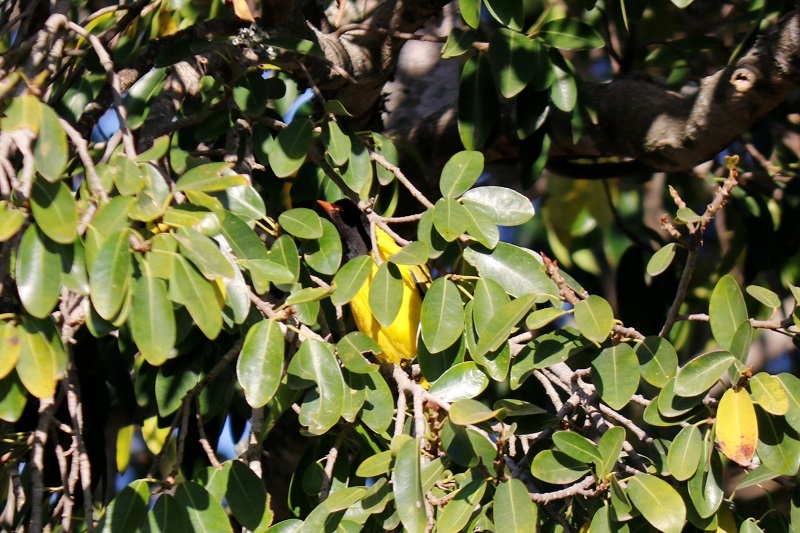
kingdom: Animalia
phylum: Chordata
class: Aves
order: Passeriformes
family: Oriolidae
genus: Oriolus
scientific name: Oriolus larvatus
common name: Black-headed oriole
